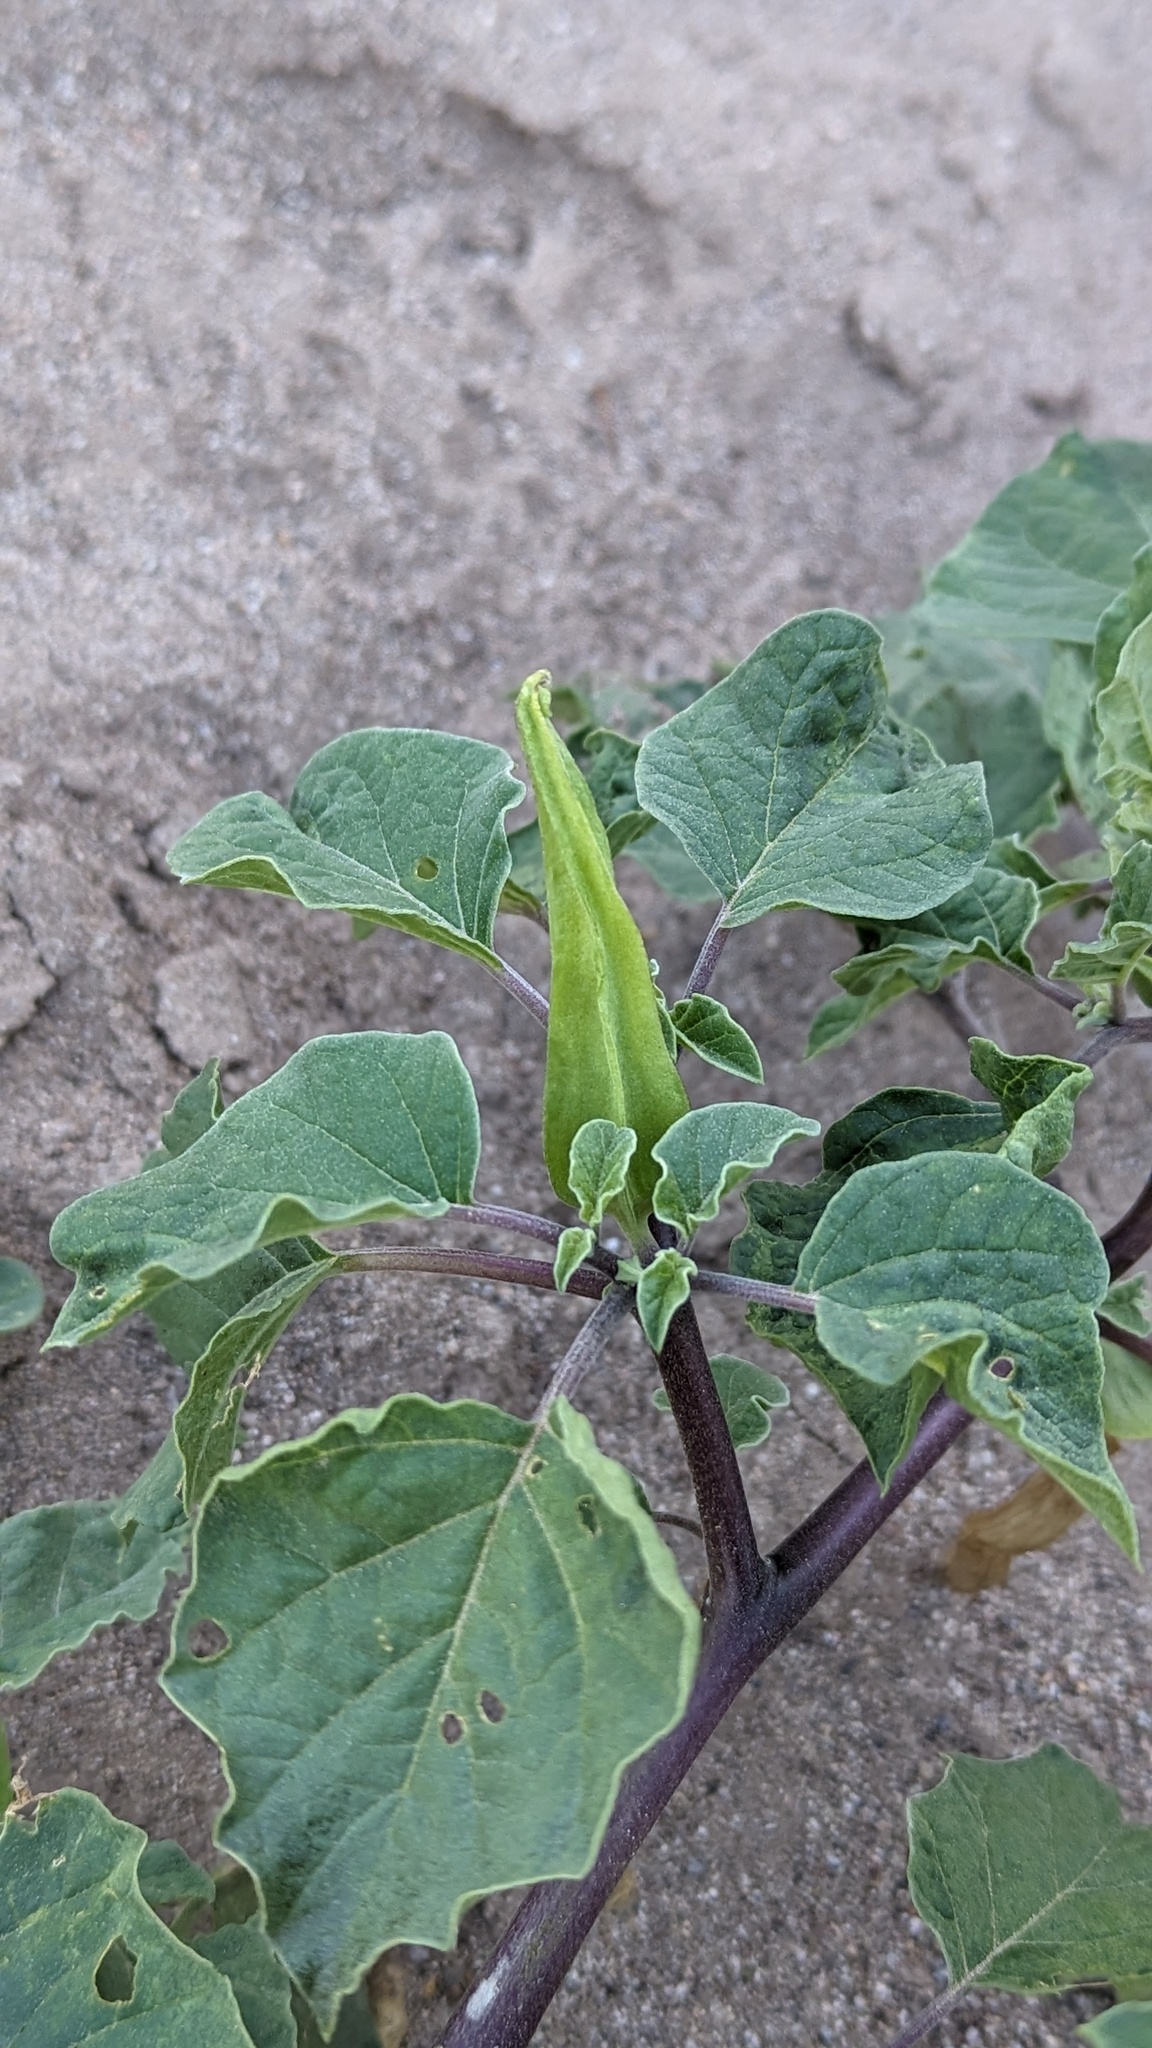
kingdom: Plantae
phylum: Tracheophyta
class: Magnoliopsida
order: Solanales
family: Solanaceae
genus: Datura
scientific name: Datura discolor
